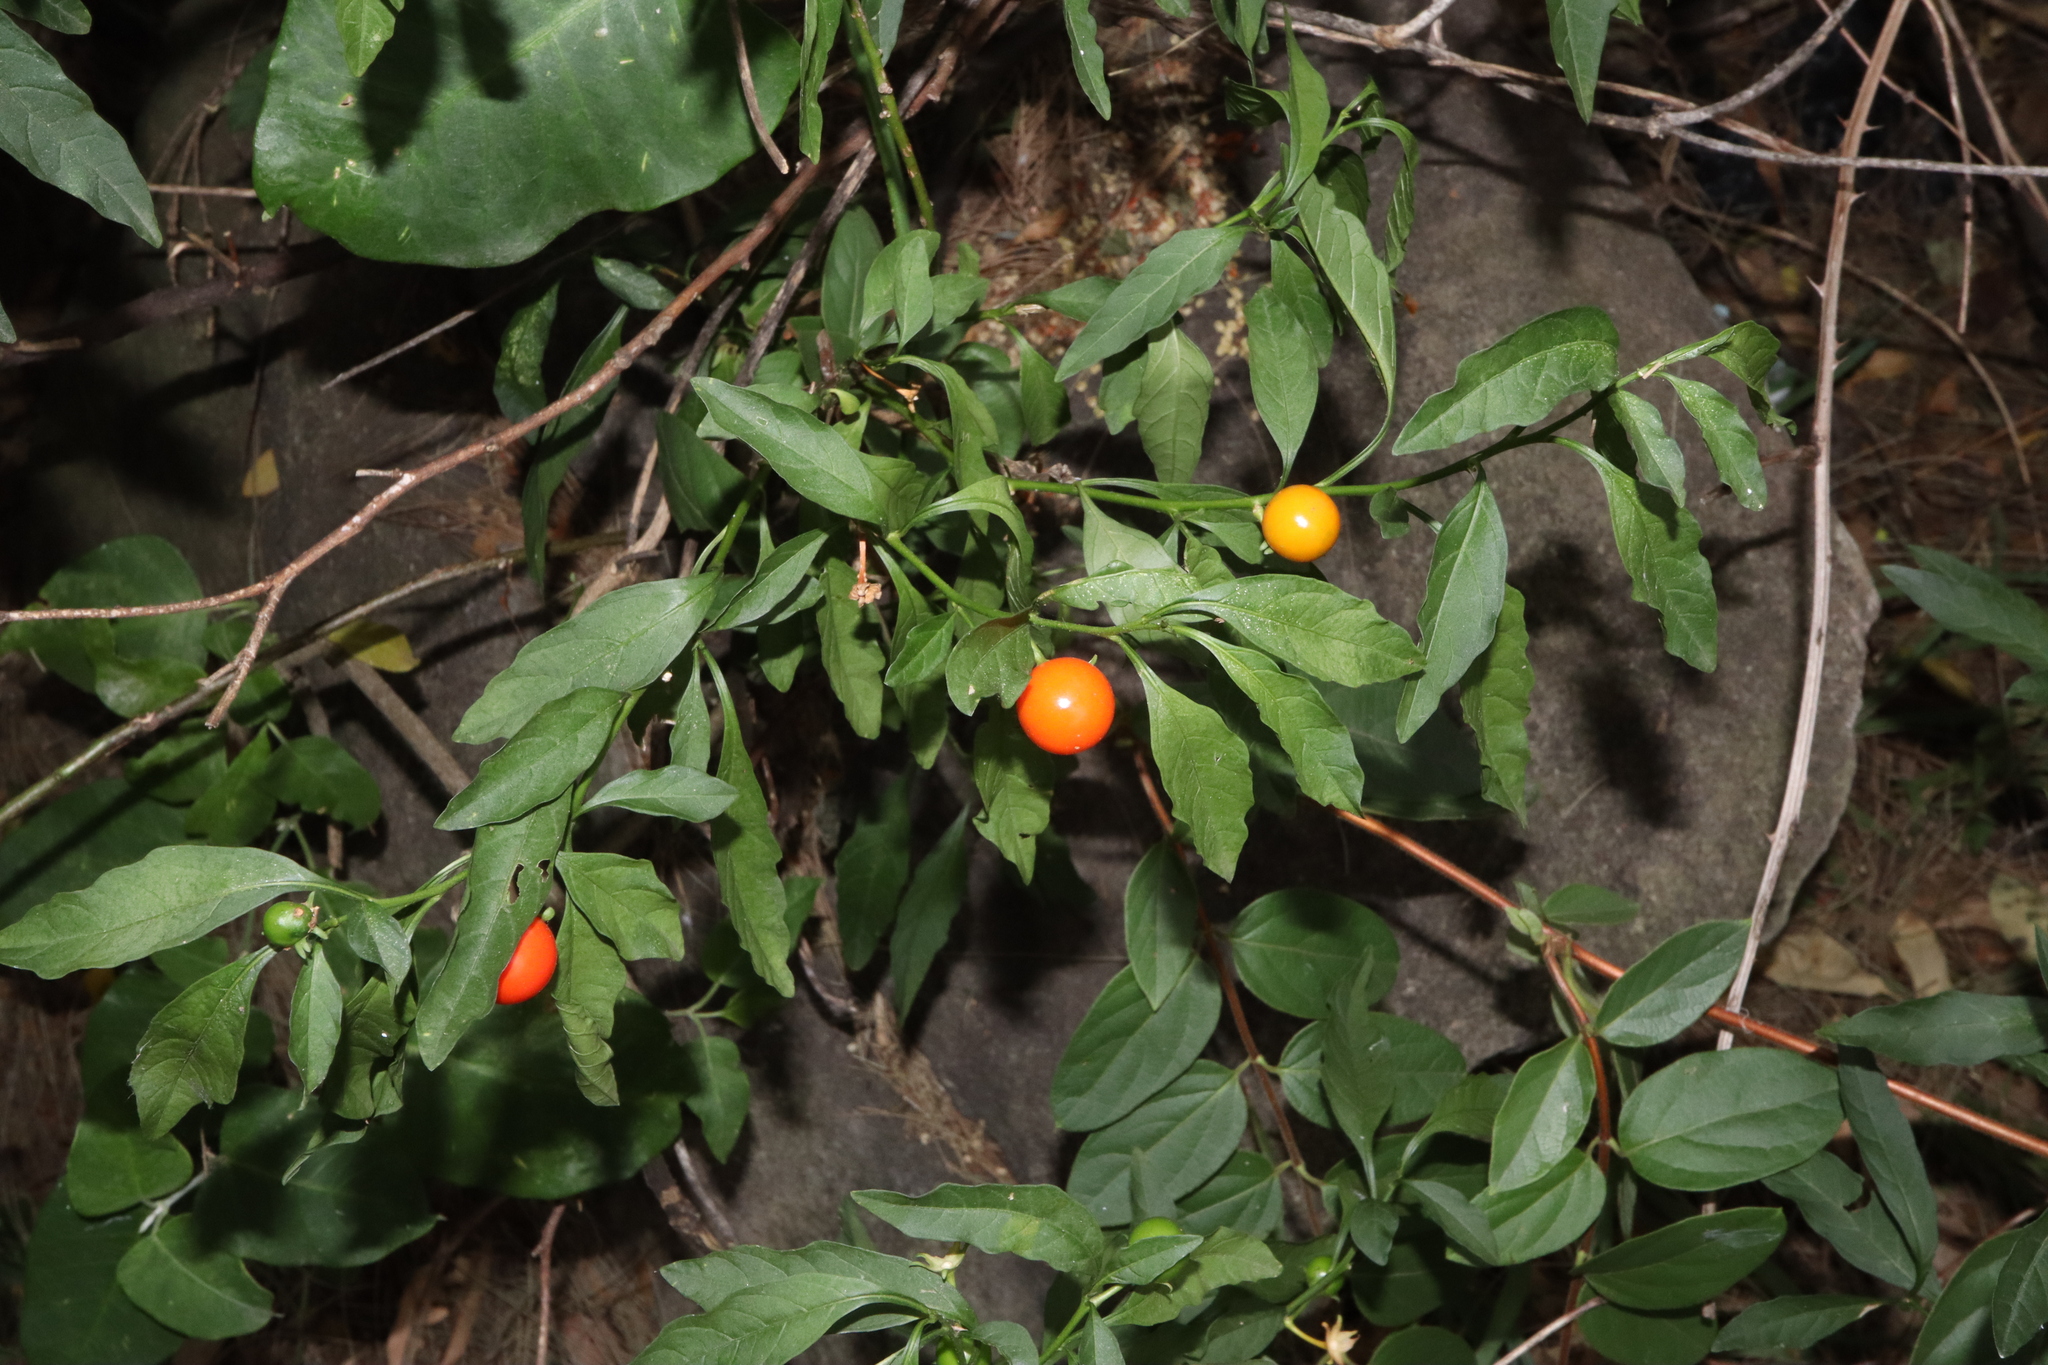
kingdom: Plantae
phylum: Tracheophyta
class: Magnoliopsida
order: Solanales
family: Solanaceae
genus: Solanum
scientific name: Solanum pseudocapsicum
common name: Jerusalem cherry
